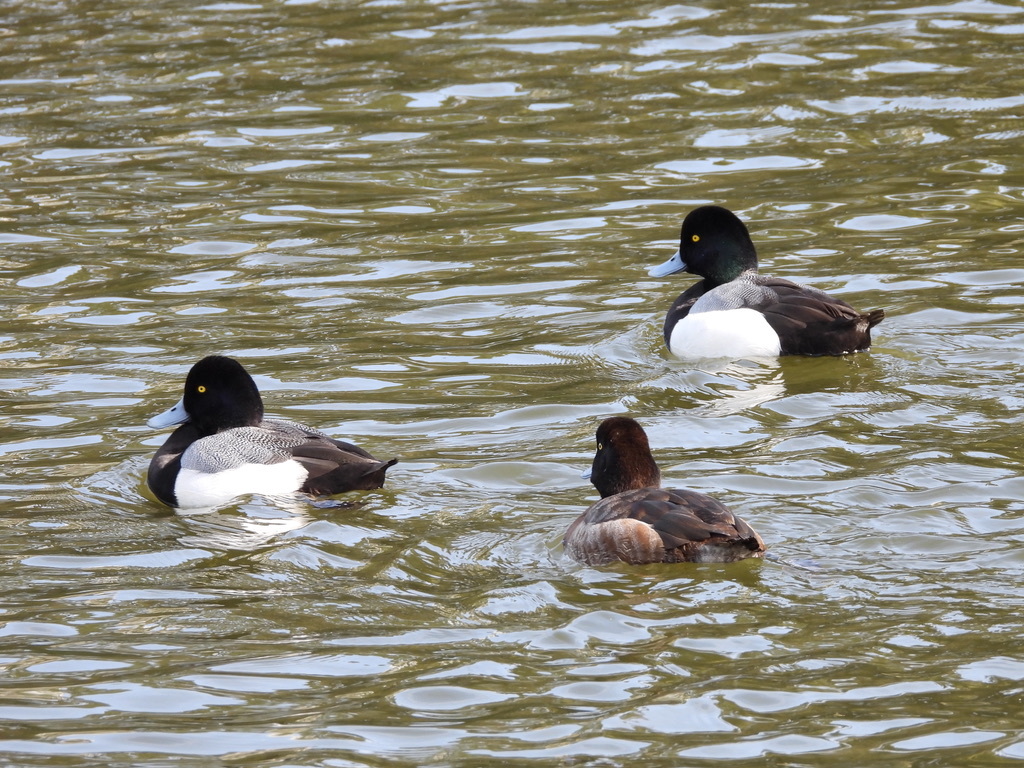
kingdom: Animalia
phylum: Chordata
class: Aves
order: Anseriformes
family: Anatidae
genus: Aythya
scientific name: Aythya marila
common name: Greater scaup
